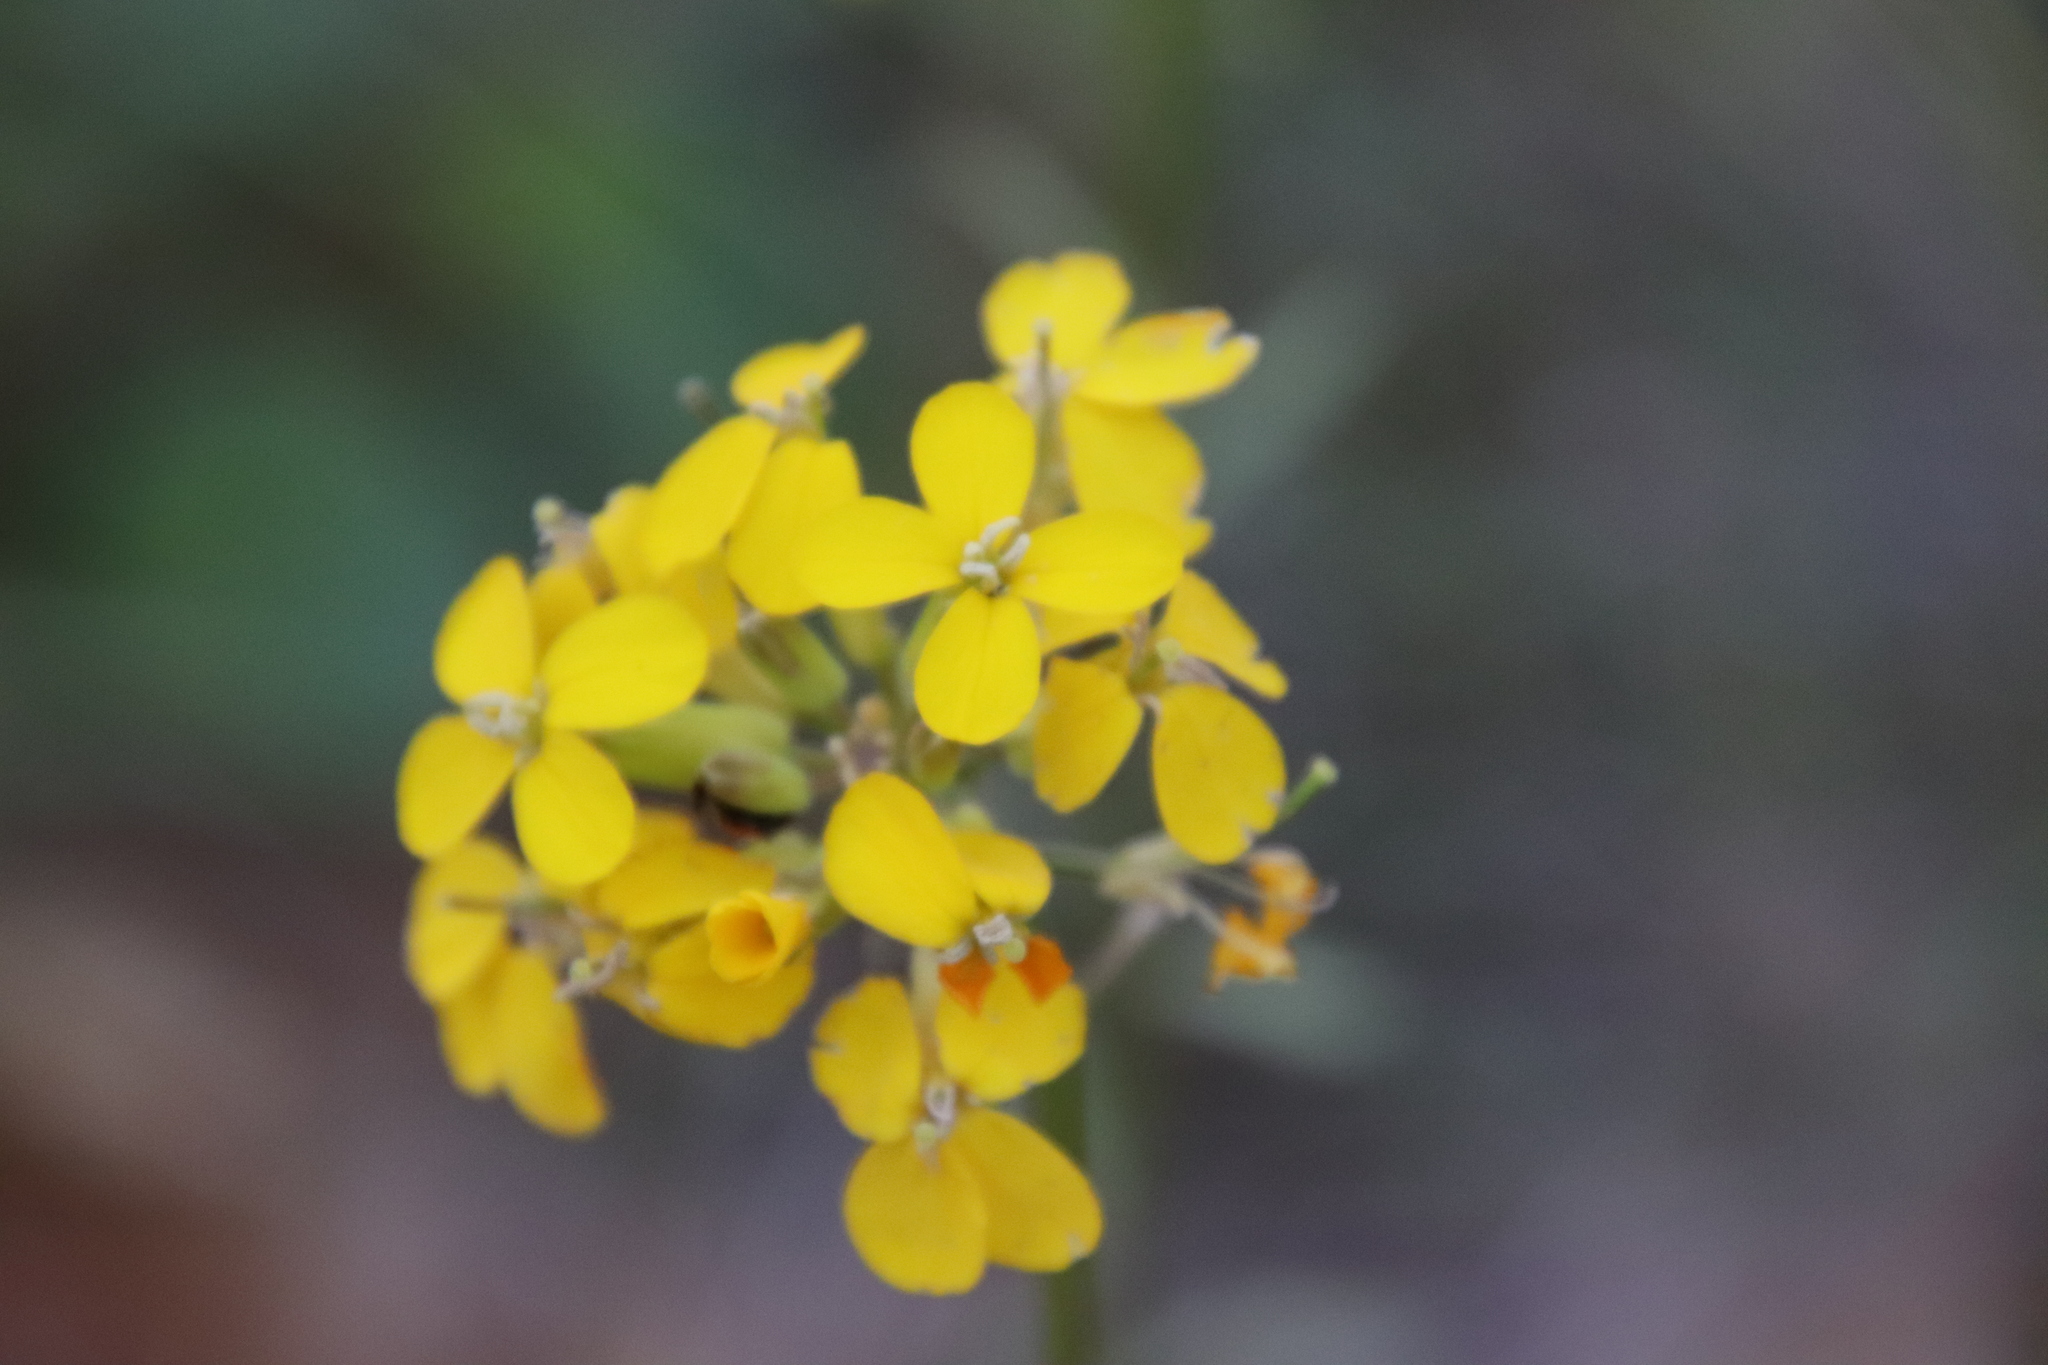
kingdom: Plantae
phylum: Tracheophyta
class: Magnoliopsida
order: Brassicales
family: Brassicaceae
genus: Erysimum
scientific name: Erysimum capitatum
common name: Western wallflower
